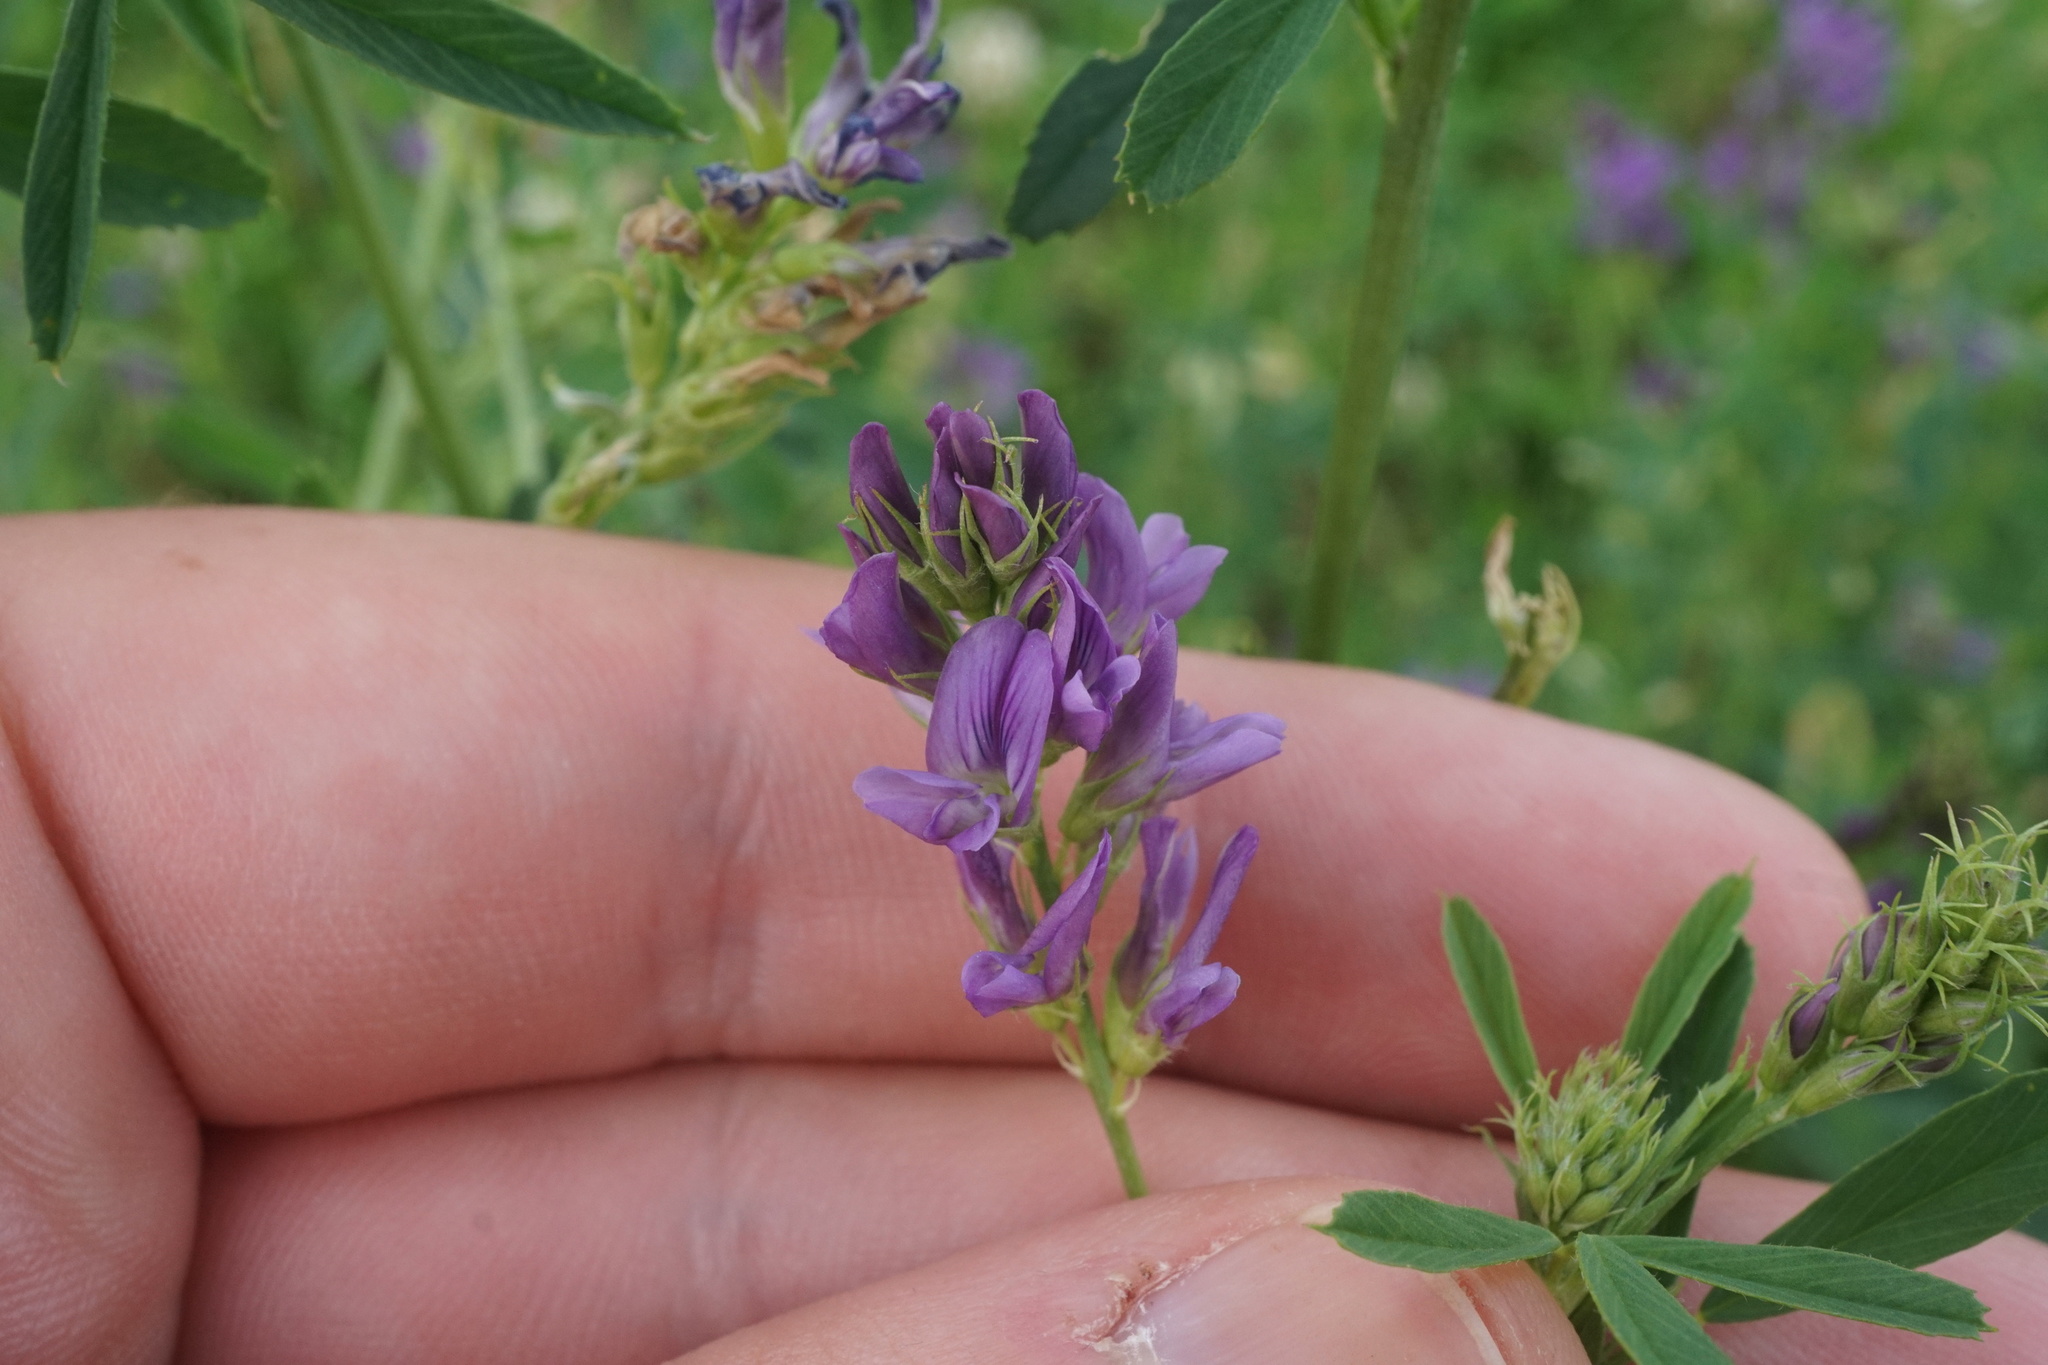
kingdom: Plantae
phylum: Tracheophyta
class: Magnoliopsida
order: Fabales
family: Fabaceae
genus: Medicago
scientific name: Medicago sativa
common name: Alfalfa
